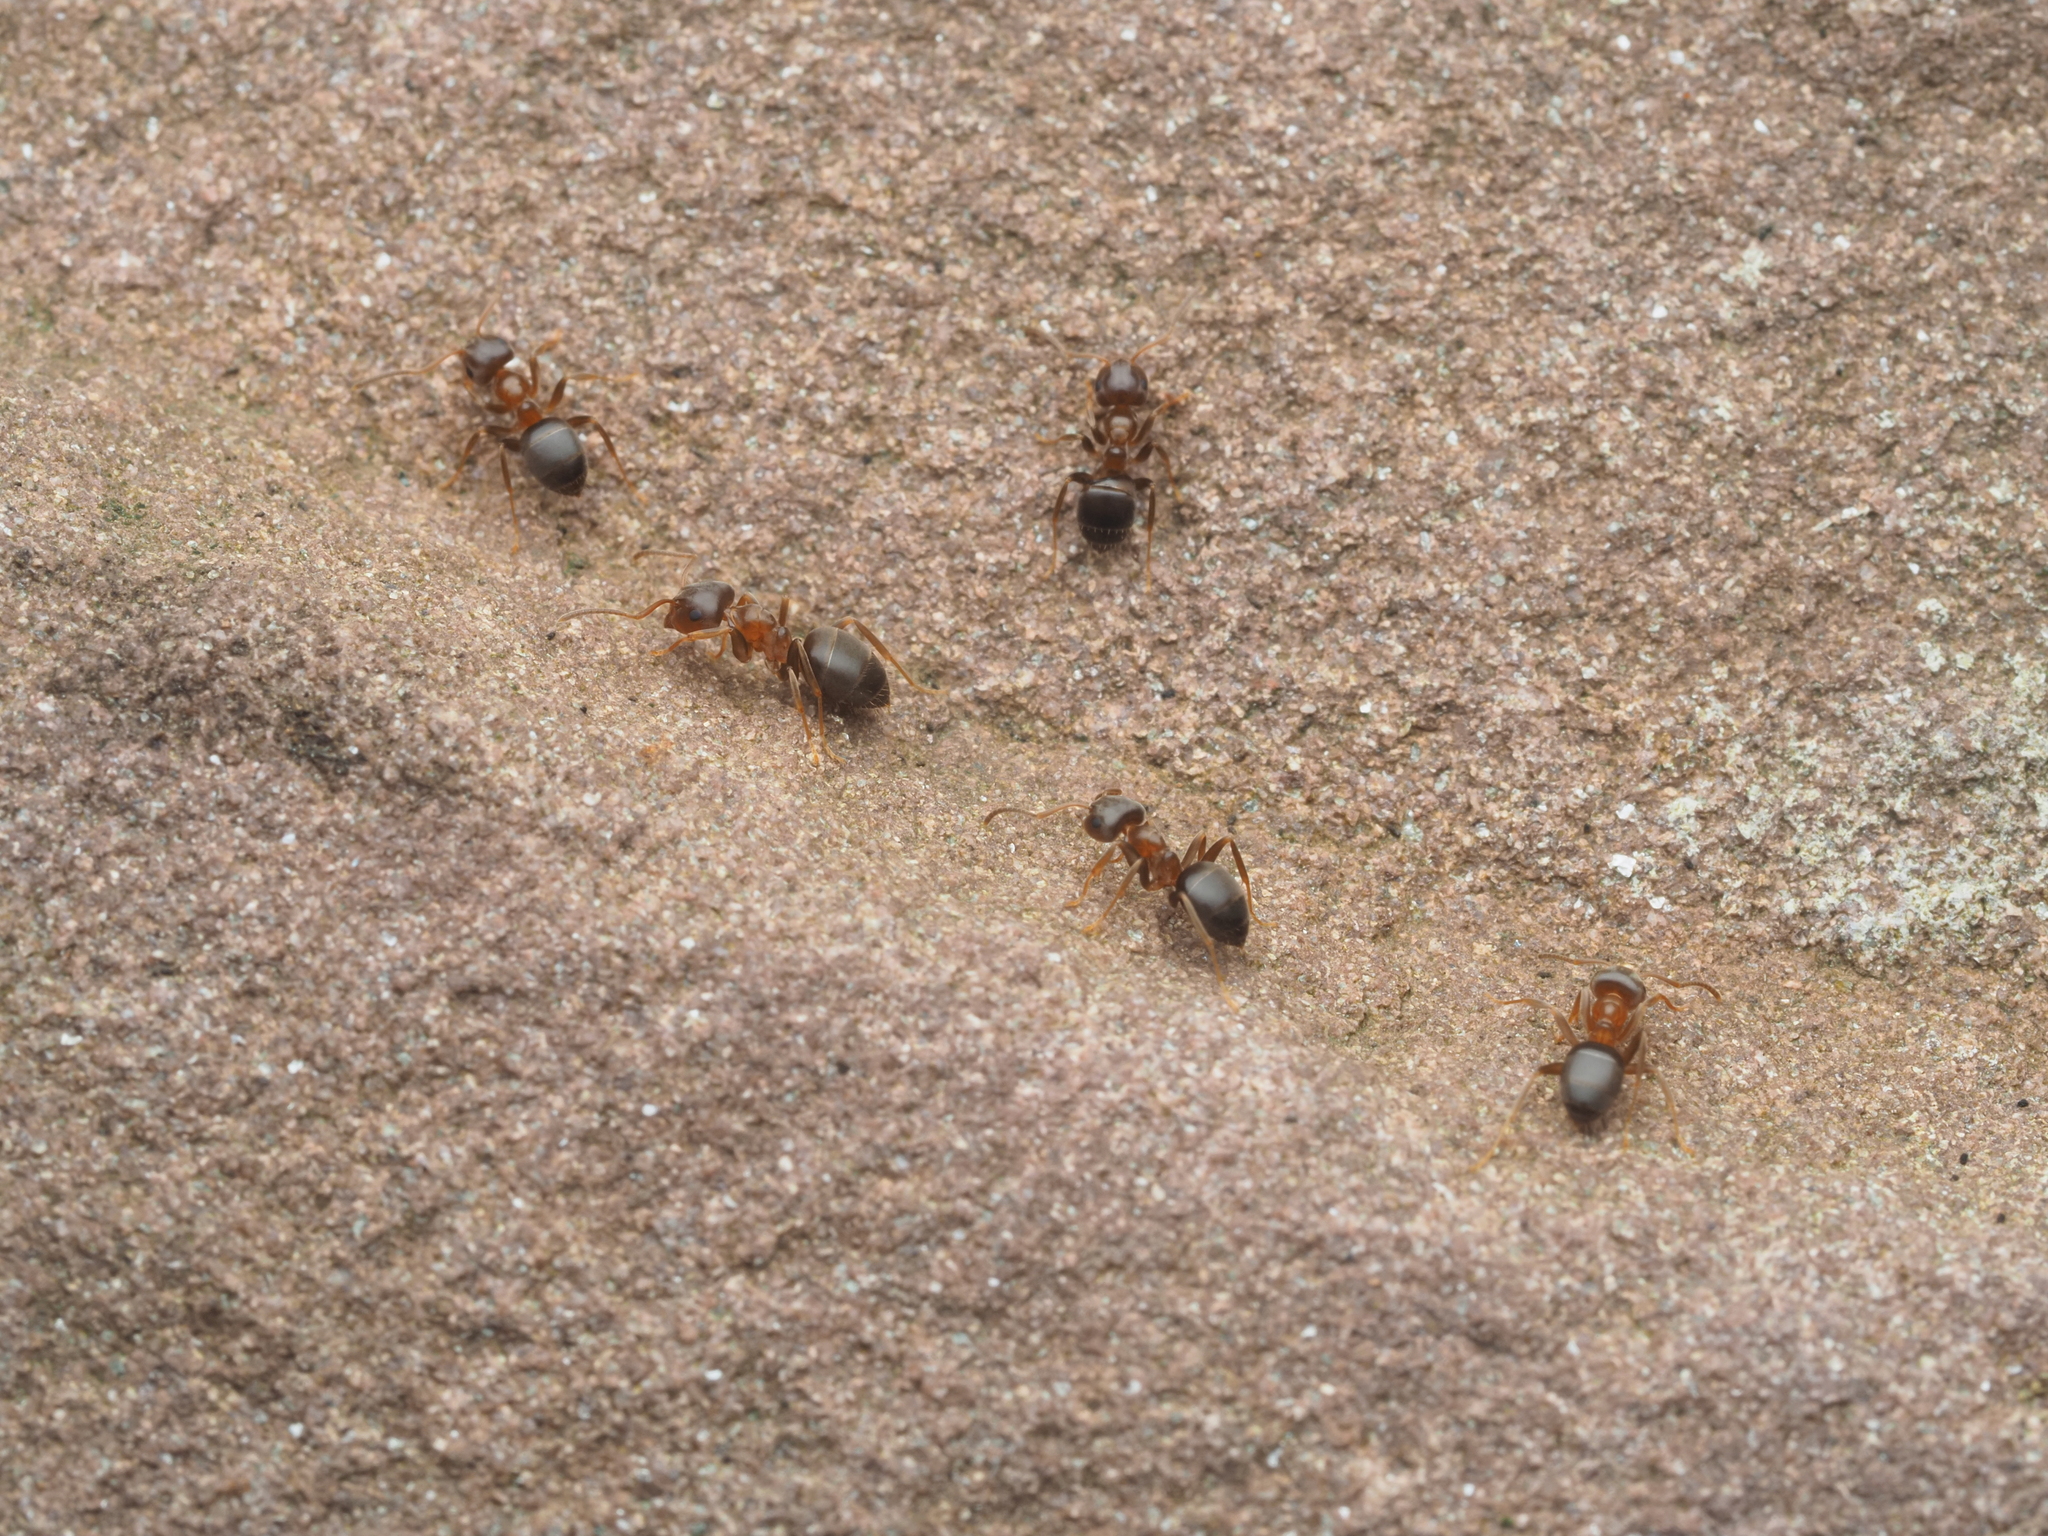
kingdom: Animalia
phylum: Arthropoda
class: Insecta
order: Hymenoptera
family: Formicidae
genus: Lasius
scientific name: Lasius brunneus
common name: Brown ant
